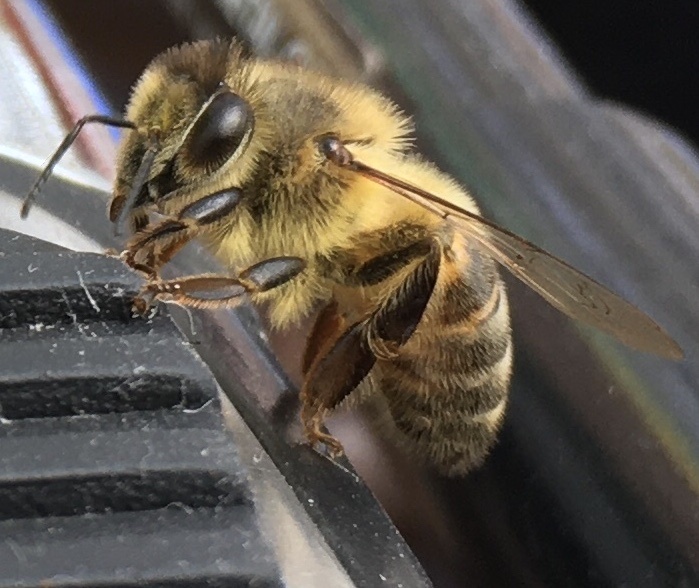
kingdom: Animalia
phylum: Arthropoda
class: Insecta
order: Hymenoptera
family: Apidae
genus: Apis
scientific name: Apis mellifera
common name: Honey bee
